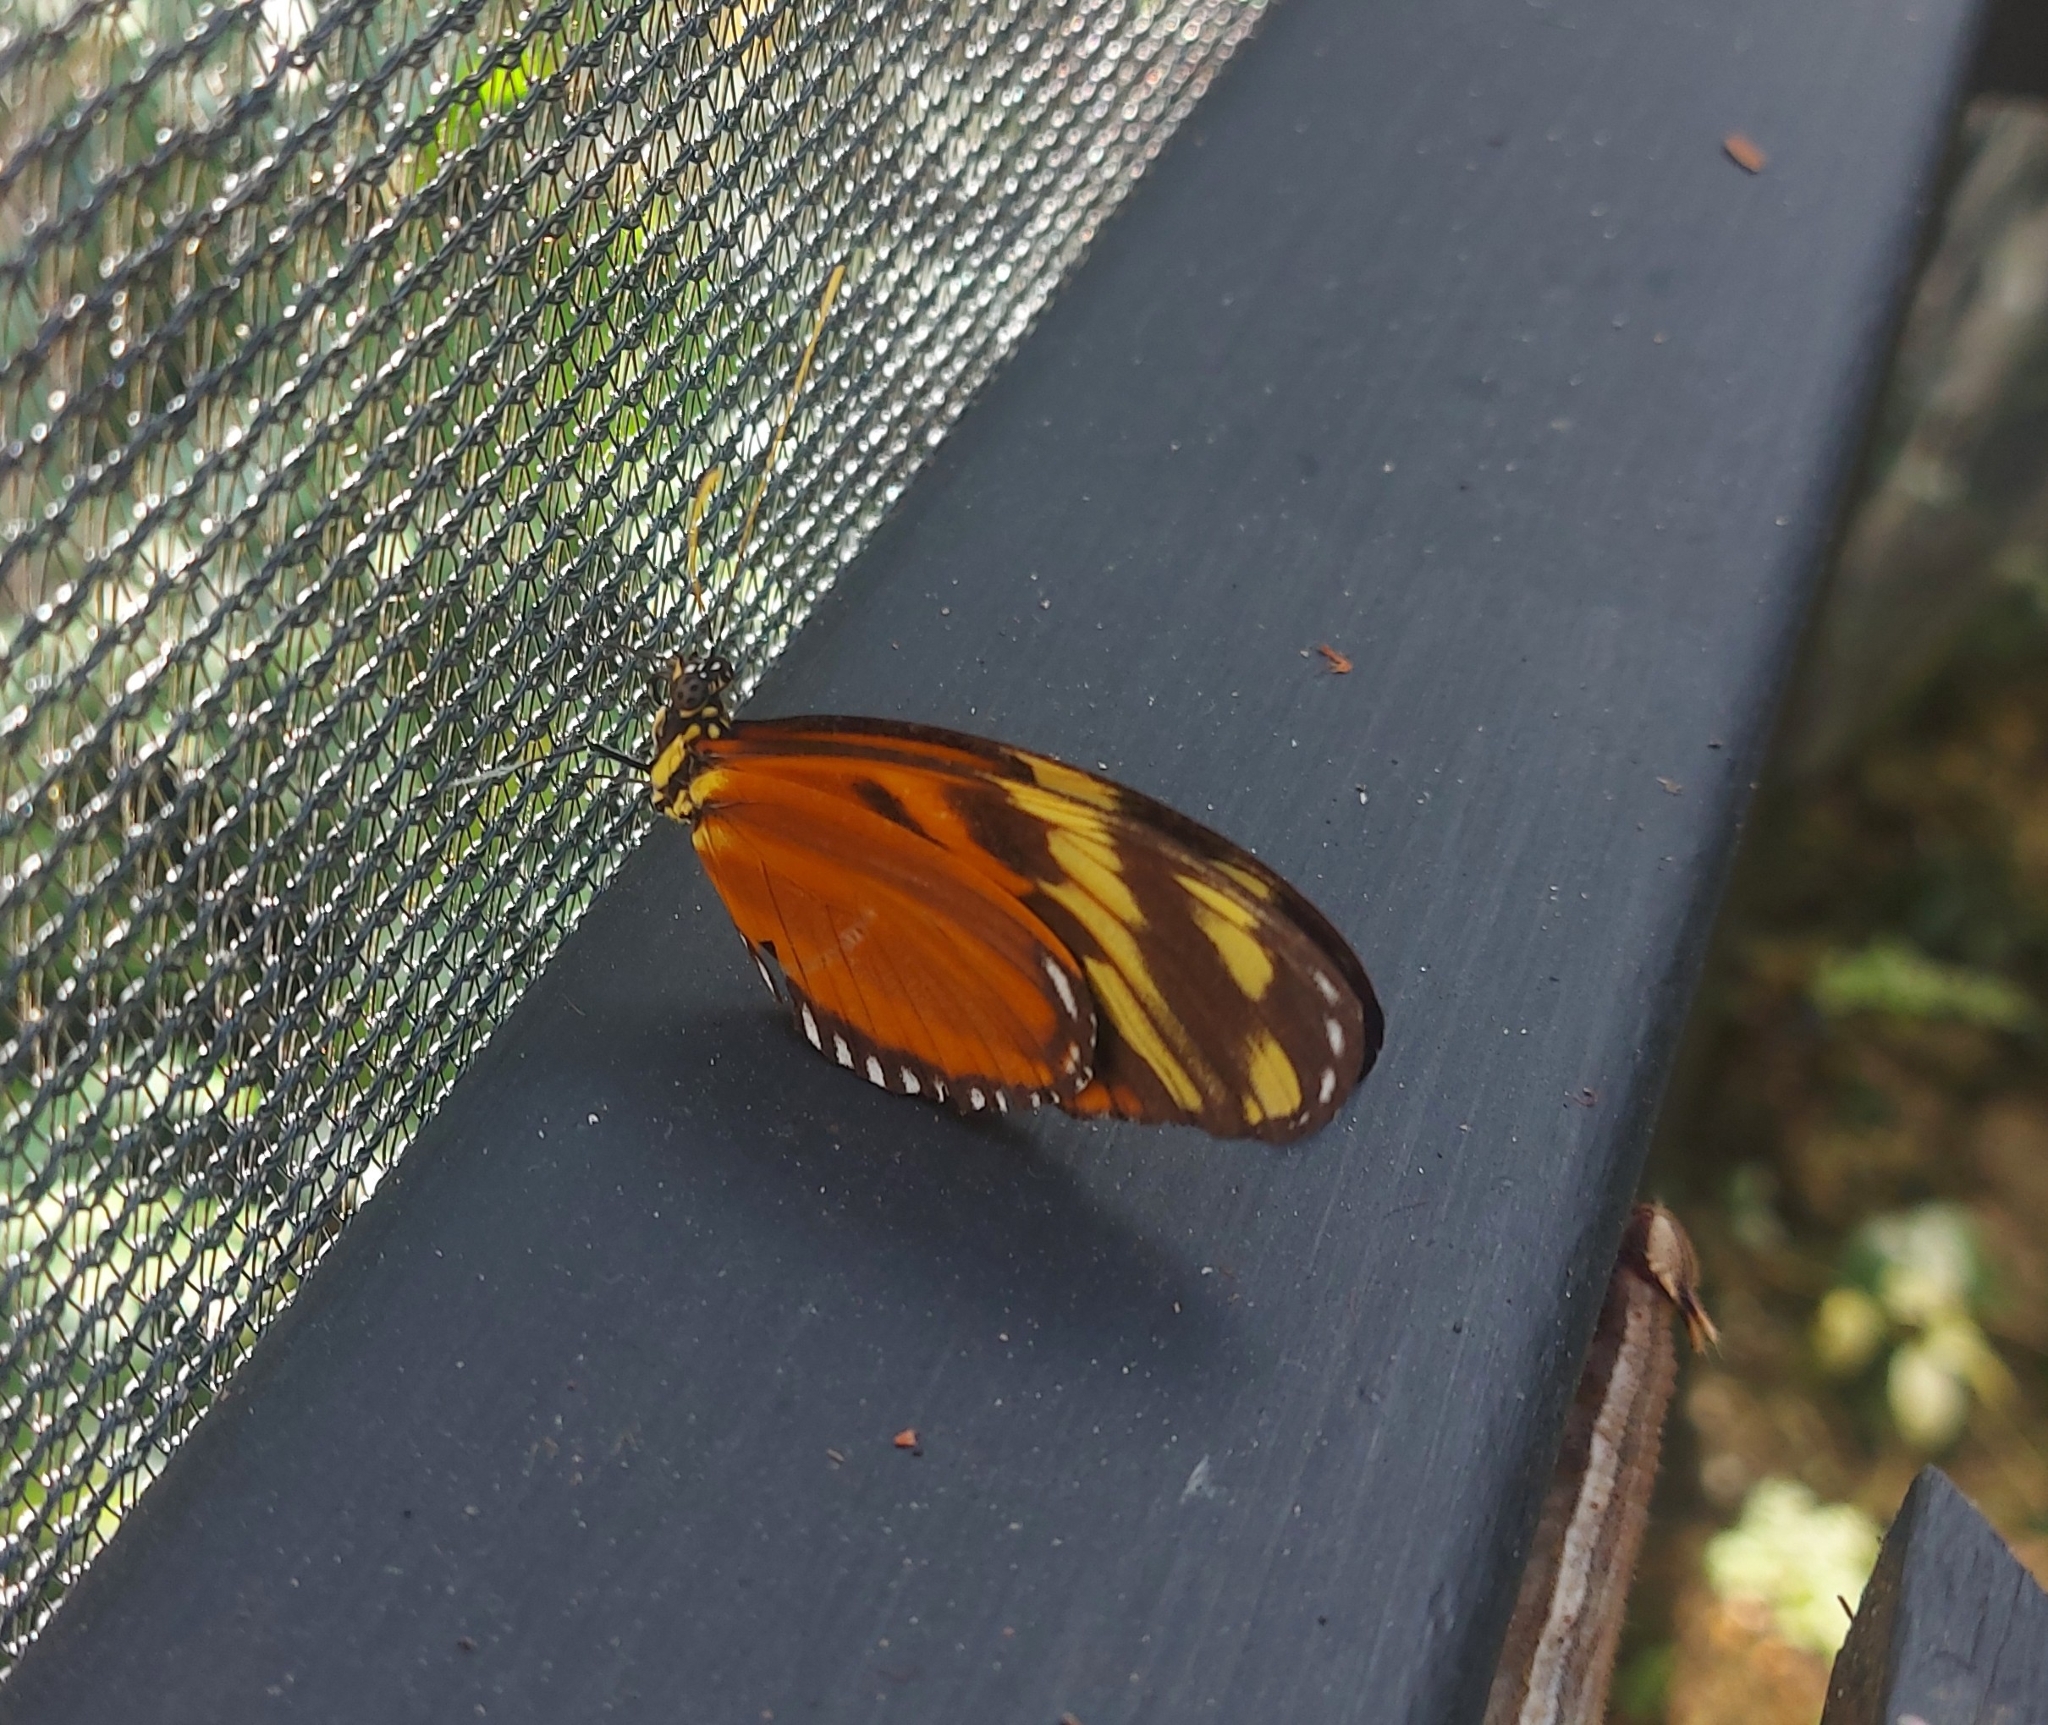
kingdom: Animalia
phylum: Arthropoda
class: Insecta
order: Lepidoptera
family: Nymphalidae
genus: Heliconius
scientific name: Heliconius ismenius
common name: Ismenius tiger
